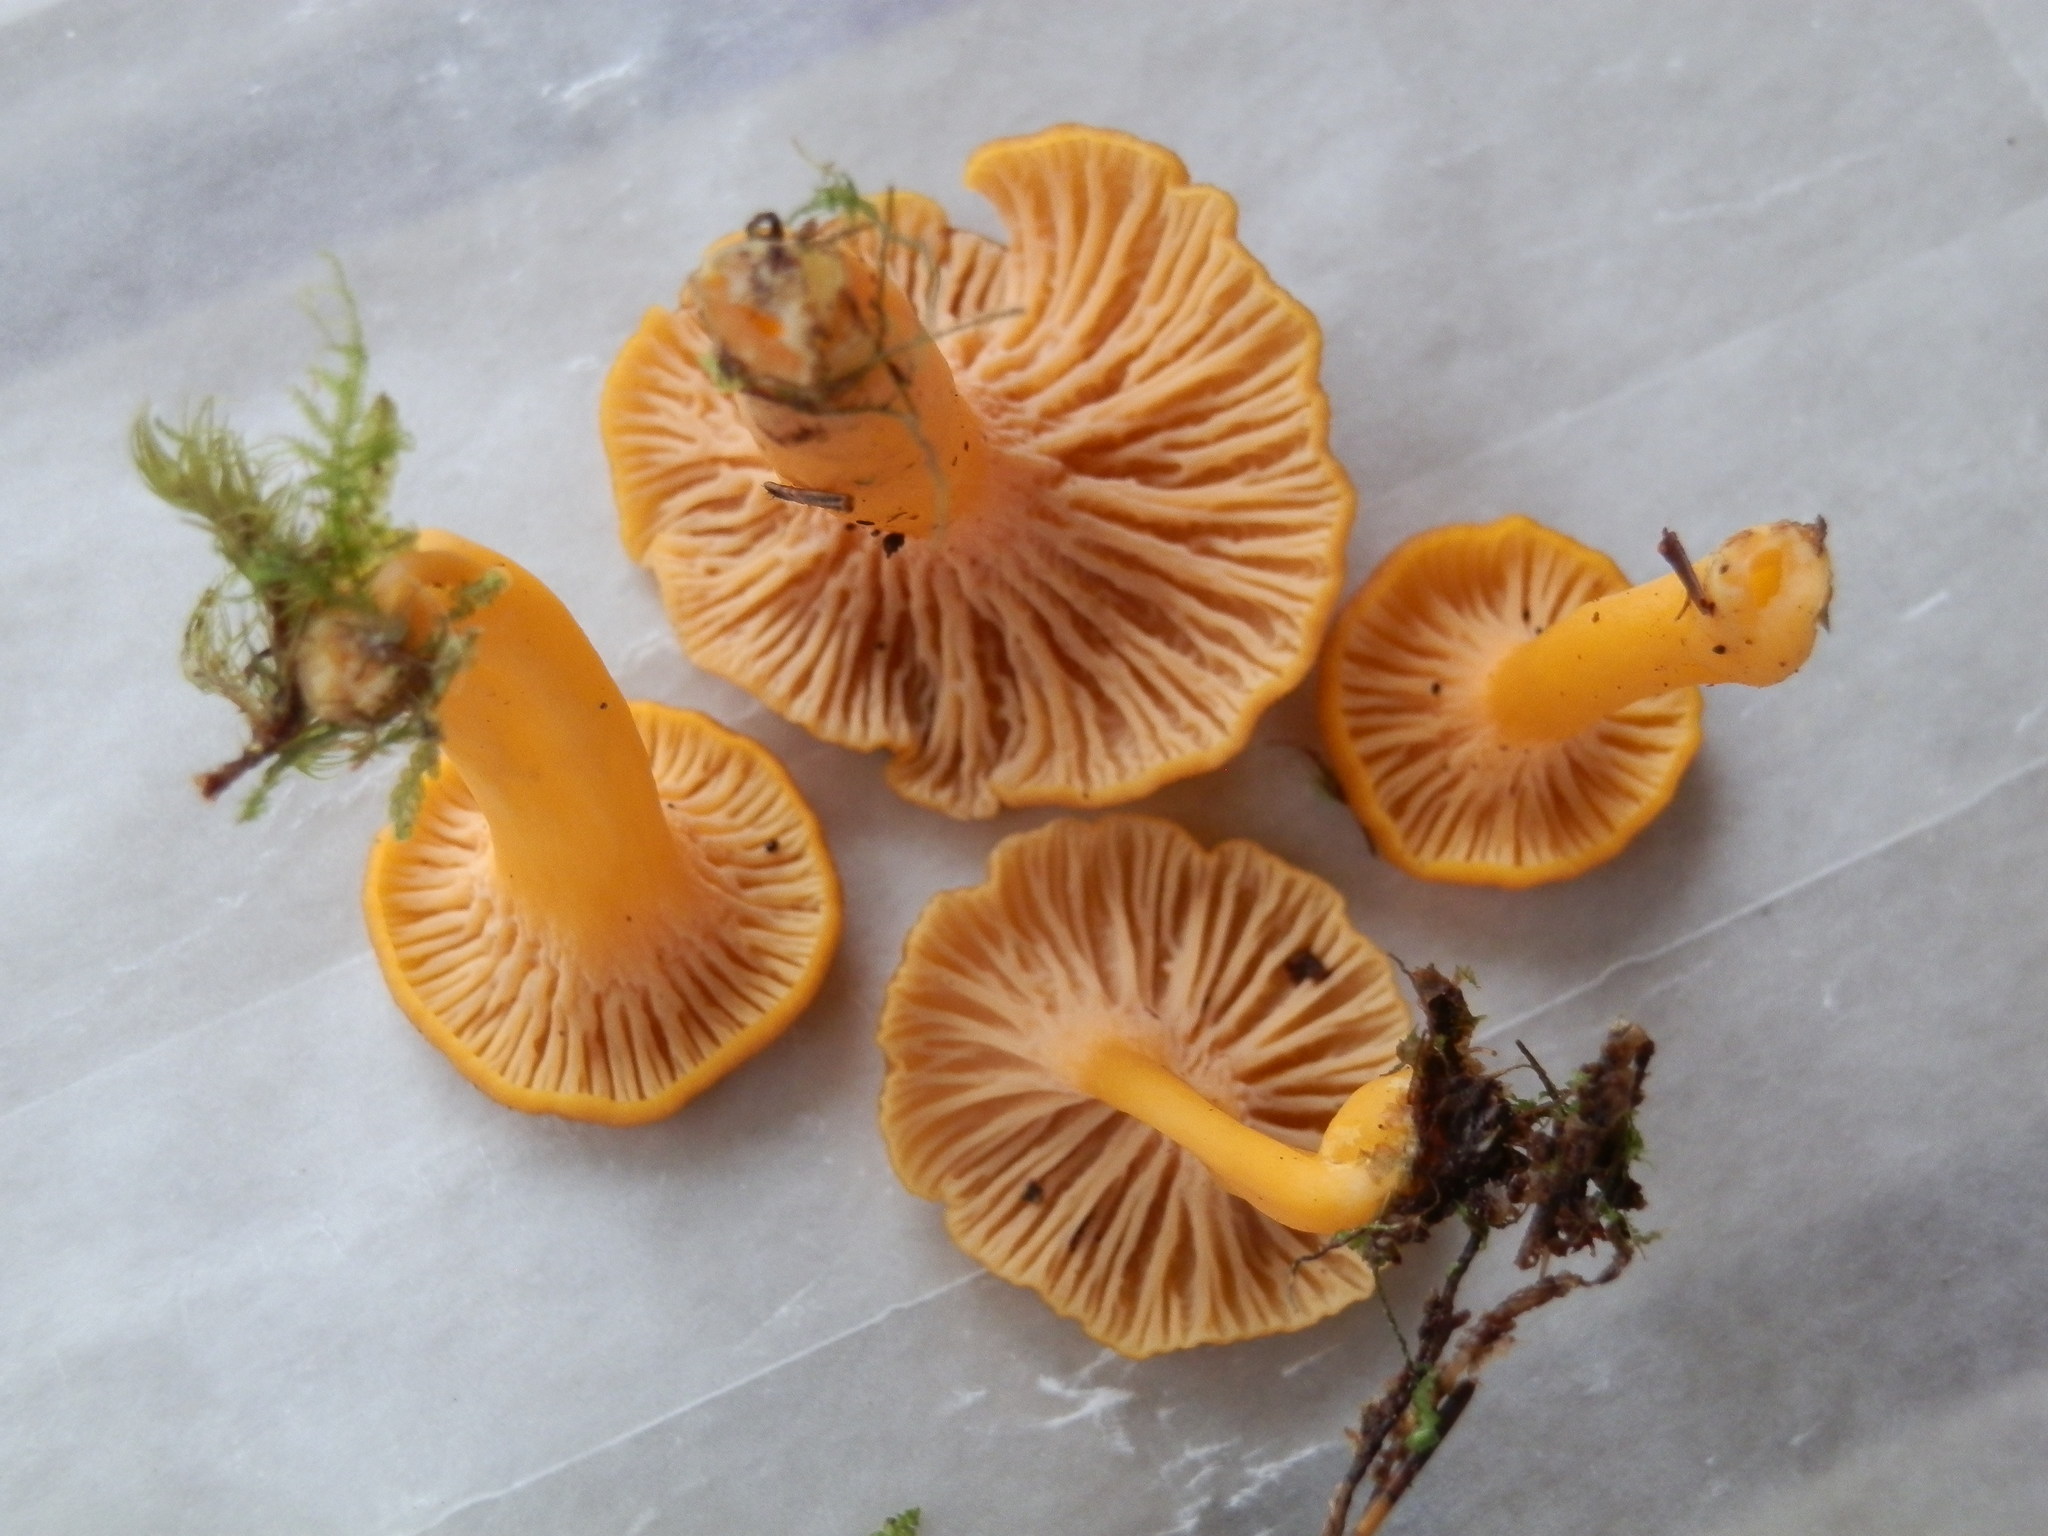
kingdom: Fungi
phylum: Basidiomycota
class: Agaricomycetes
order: Cantharellales
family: Hydnaceae
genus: Craterellus
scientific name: Craterellus ignicolor
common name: Flame chanterelle
